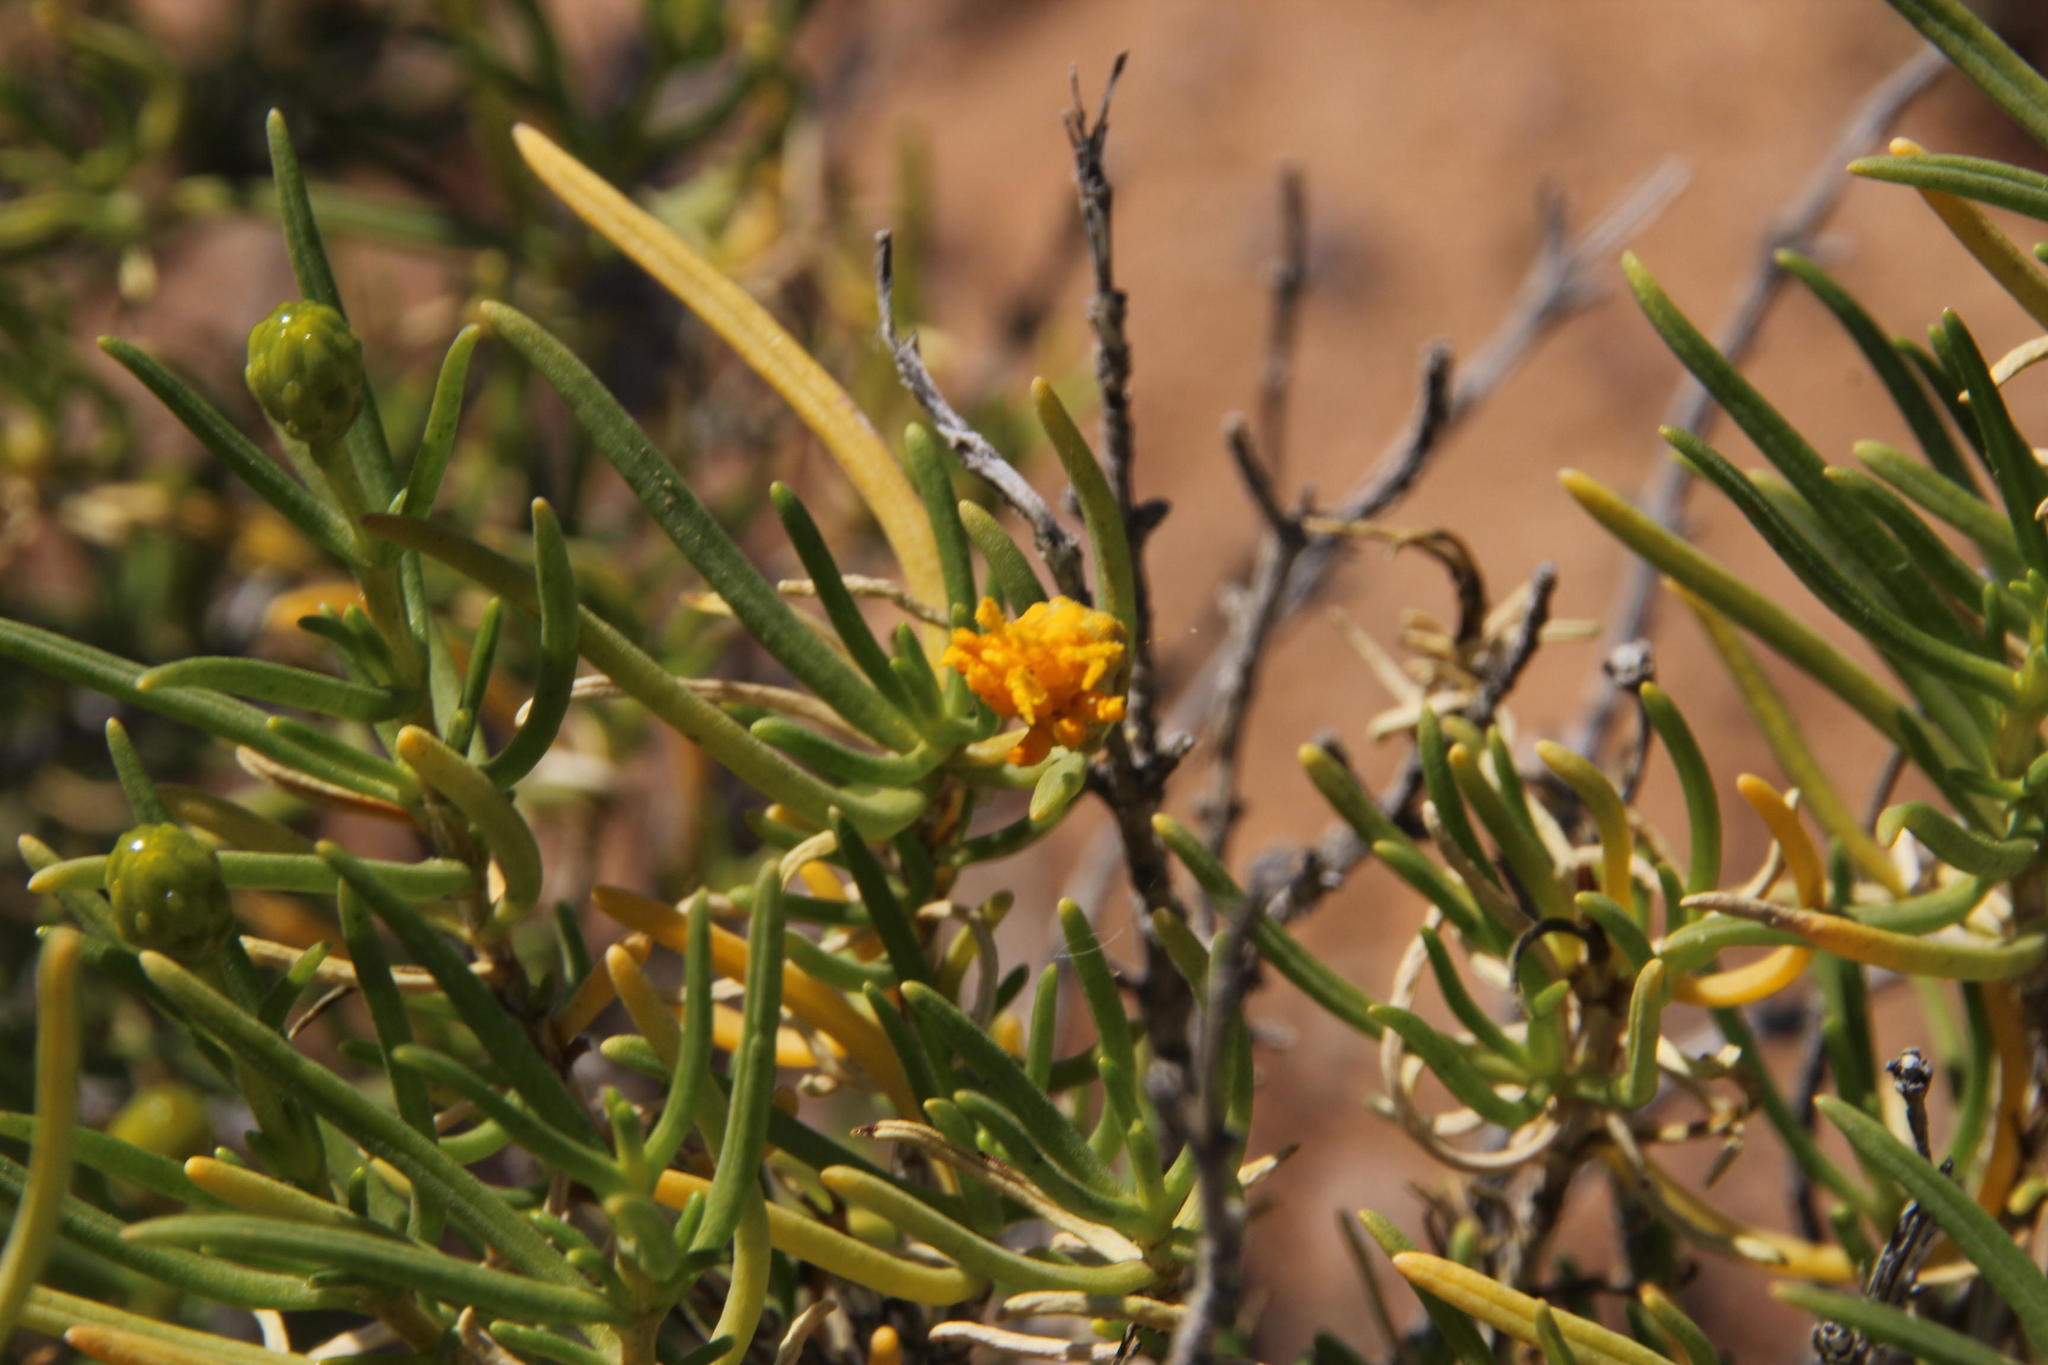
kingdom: Plantae
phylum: Tracheophyta
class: Magnoliopsida
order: Asterales
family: Asteraceae
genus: Pteronia
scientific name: Pteronia pallens
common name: Scholtzbush
